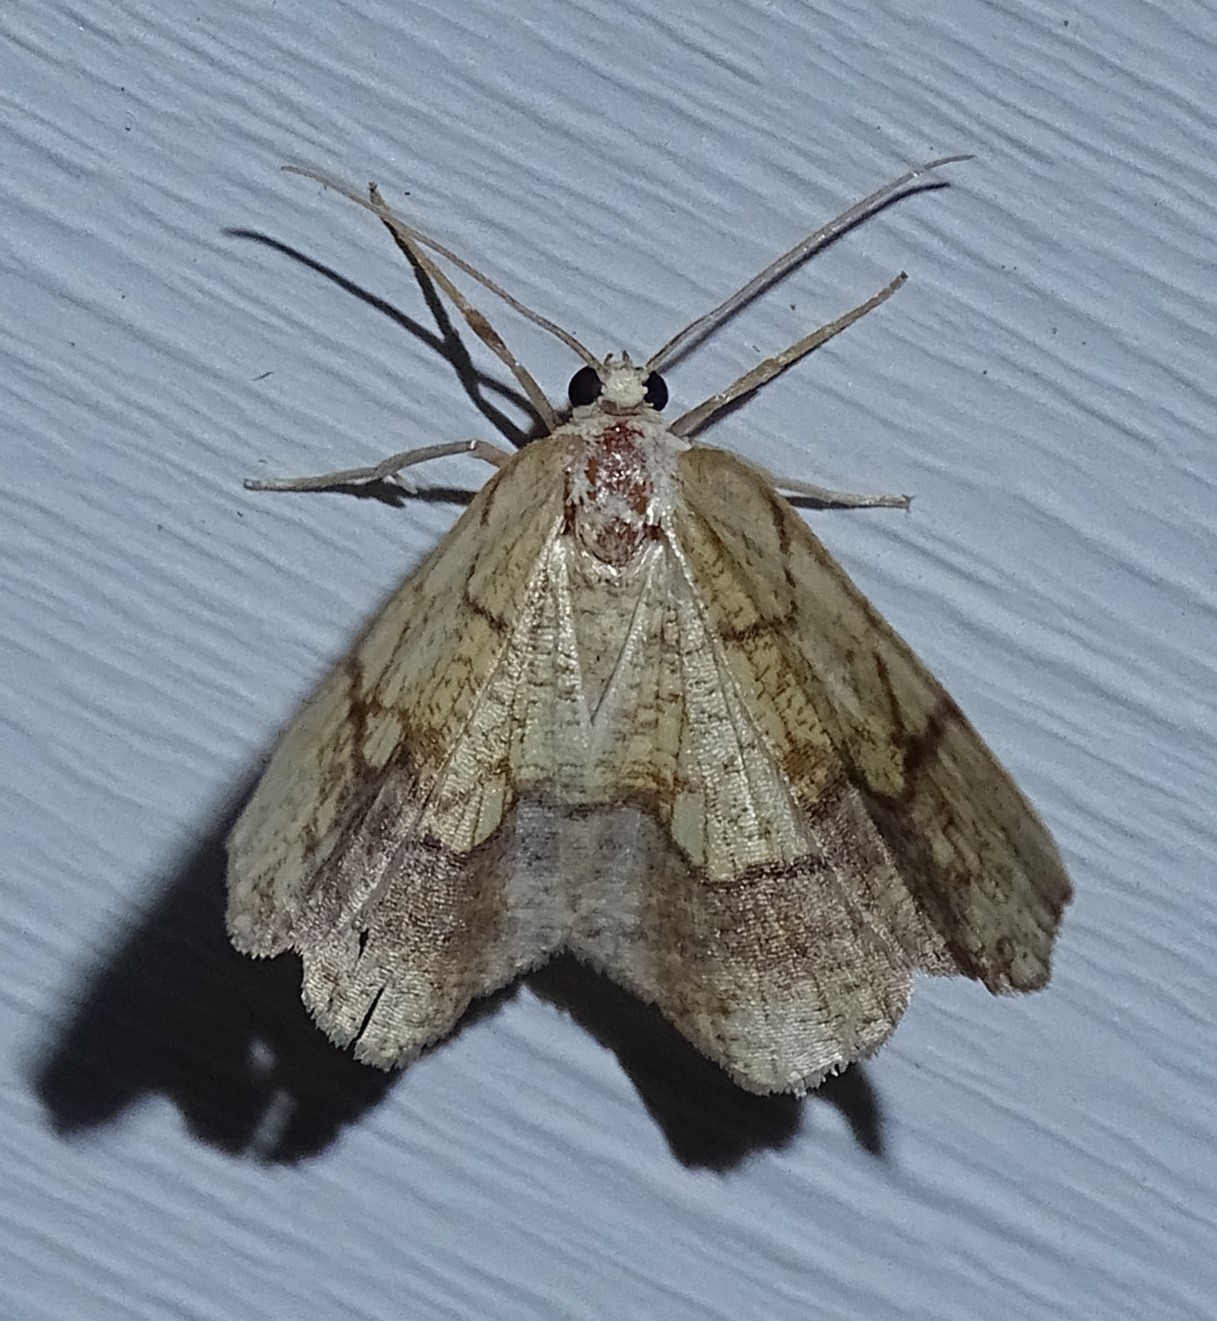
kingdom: Animalia
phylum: Arthropoda
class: Insecta
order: Lepidoptera
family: Geometridae
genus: Nematocampa
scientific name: Nematocampa resistaria
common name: Horned spanworm moth
